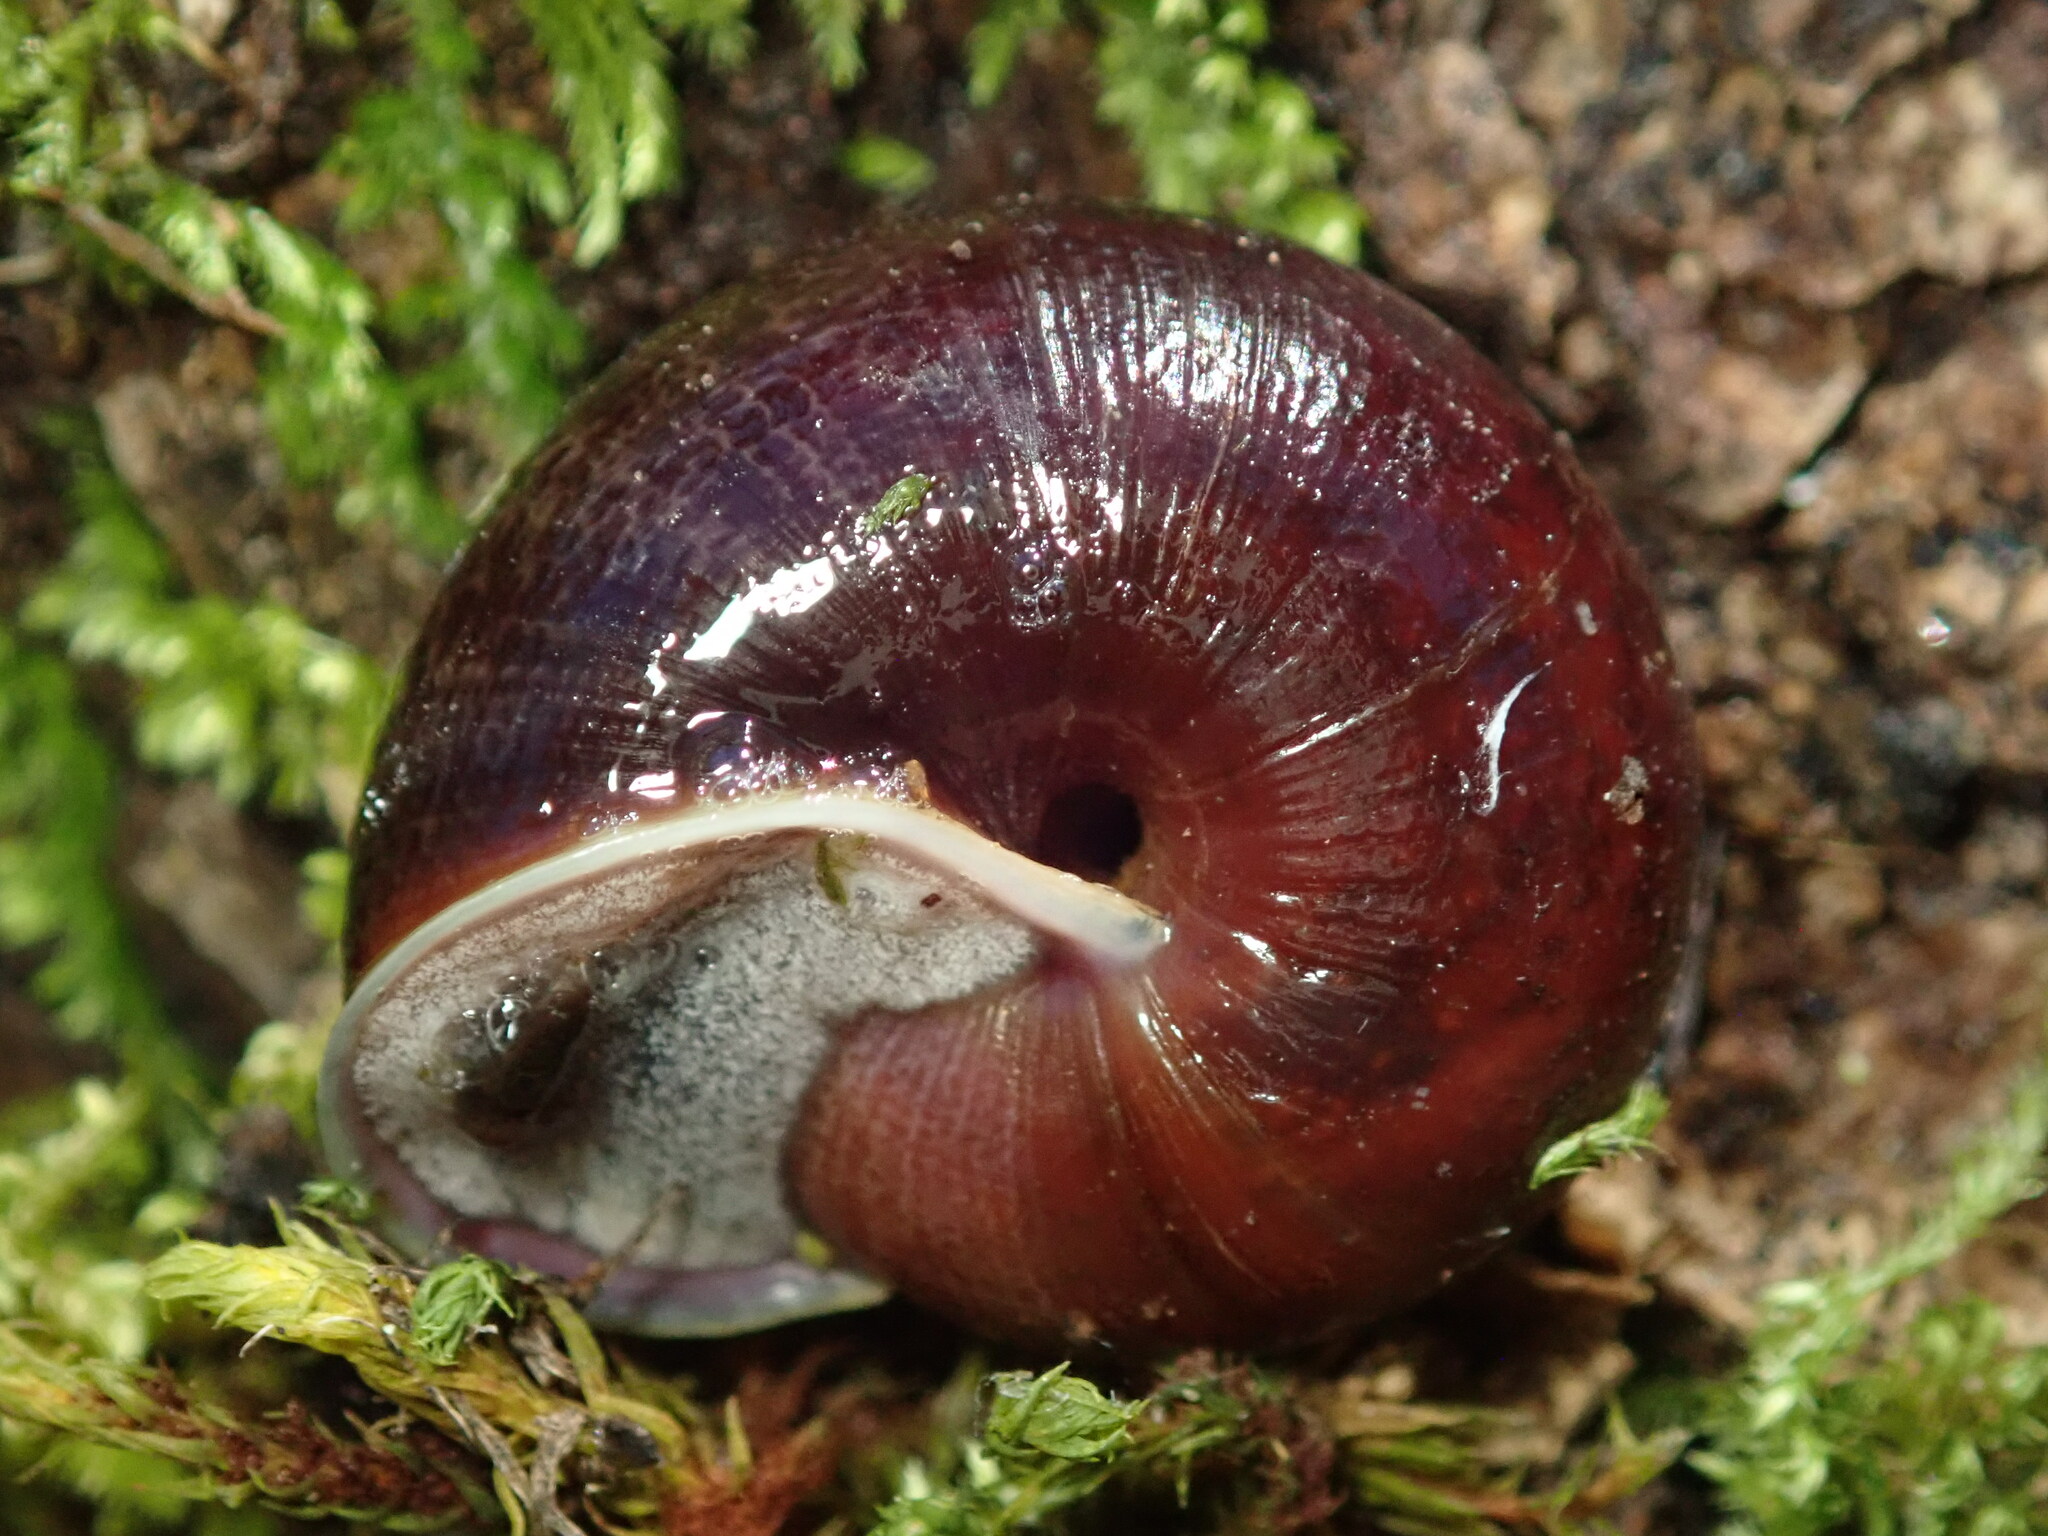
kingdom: Animalia
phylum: Mollusca
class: Gastropoda
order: Stylommatophora
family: Xanthonychidae
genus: Helminthoglypta
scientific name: Helminthoglypta sonoma
